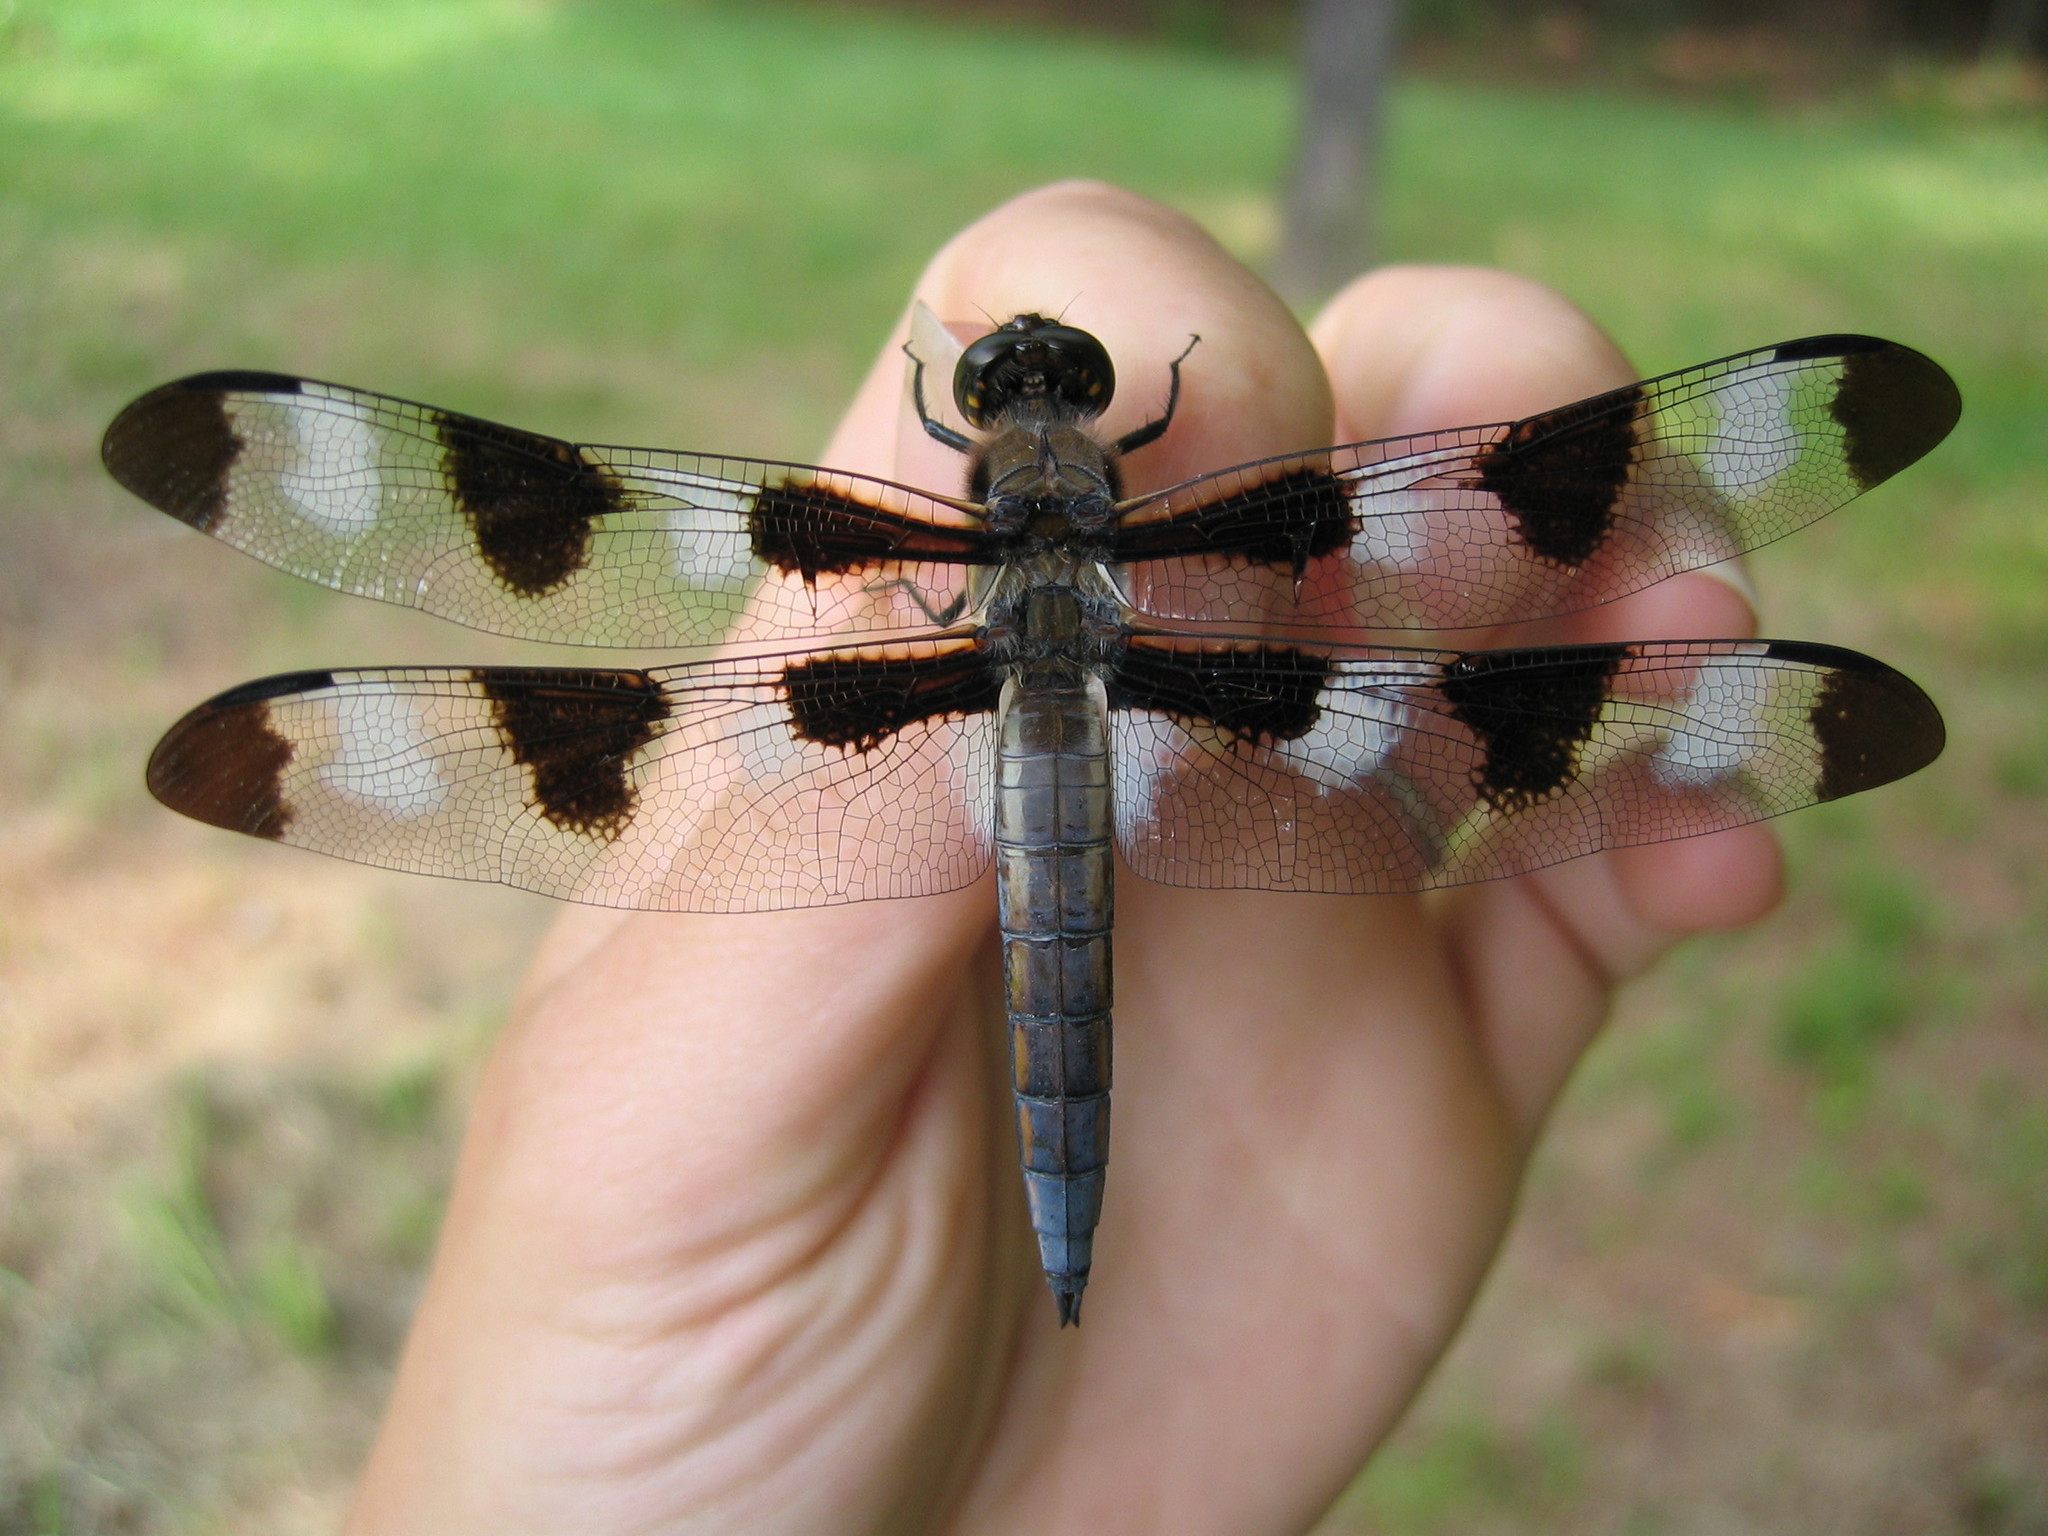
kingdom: Animalia
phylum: Arthropoda
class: Insecta
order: Odonata
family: Libellulidae
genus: Libellula
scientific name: Libellula pulchella
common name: Twelve-spotted skimmer
